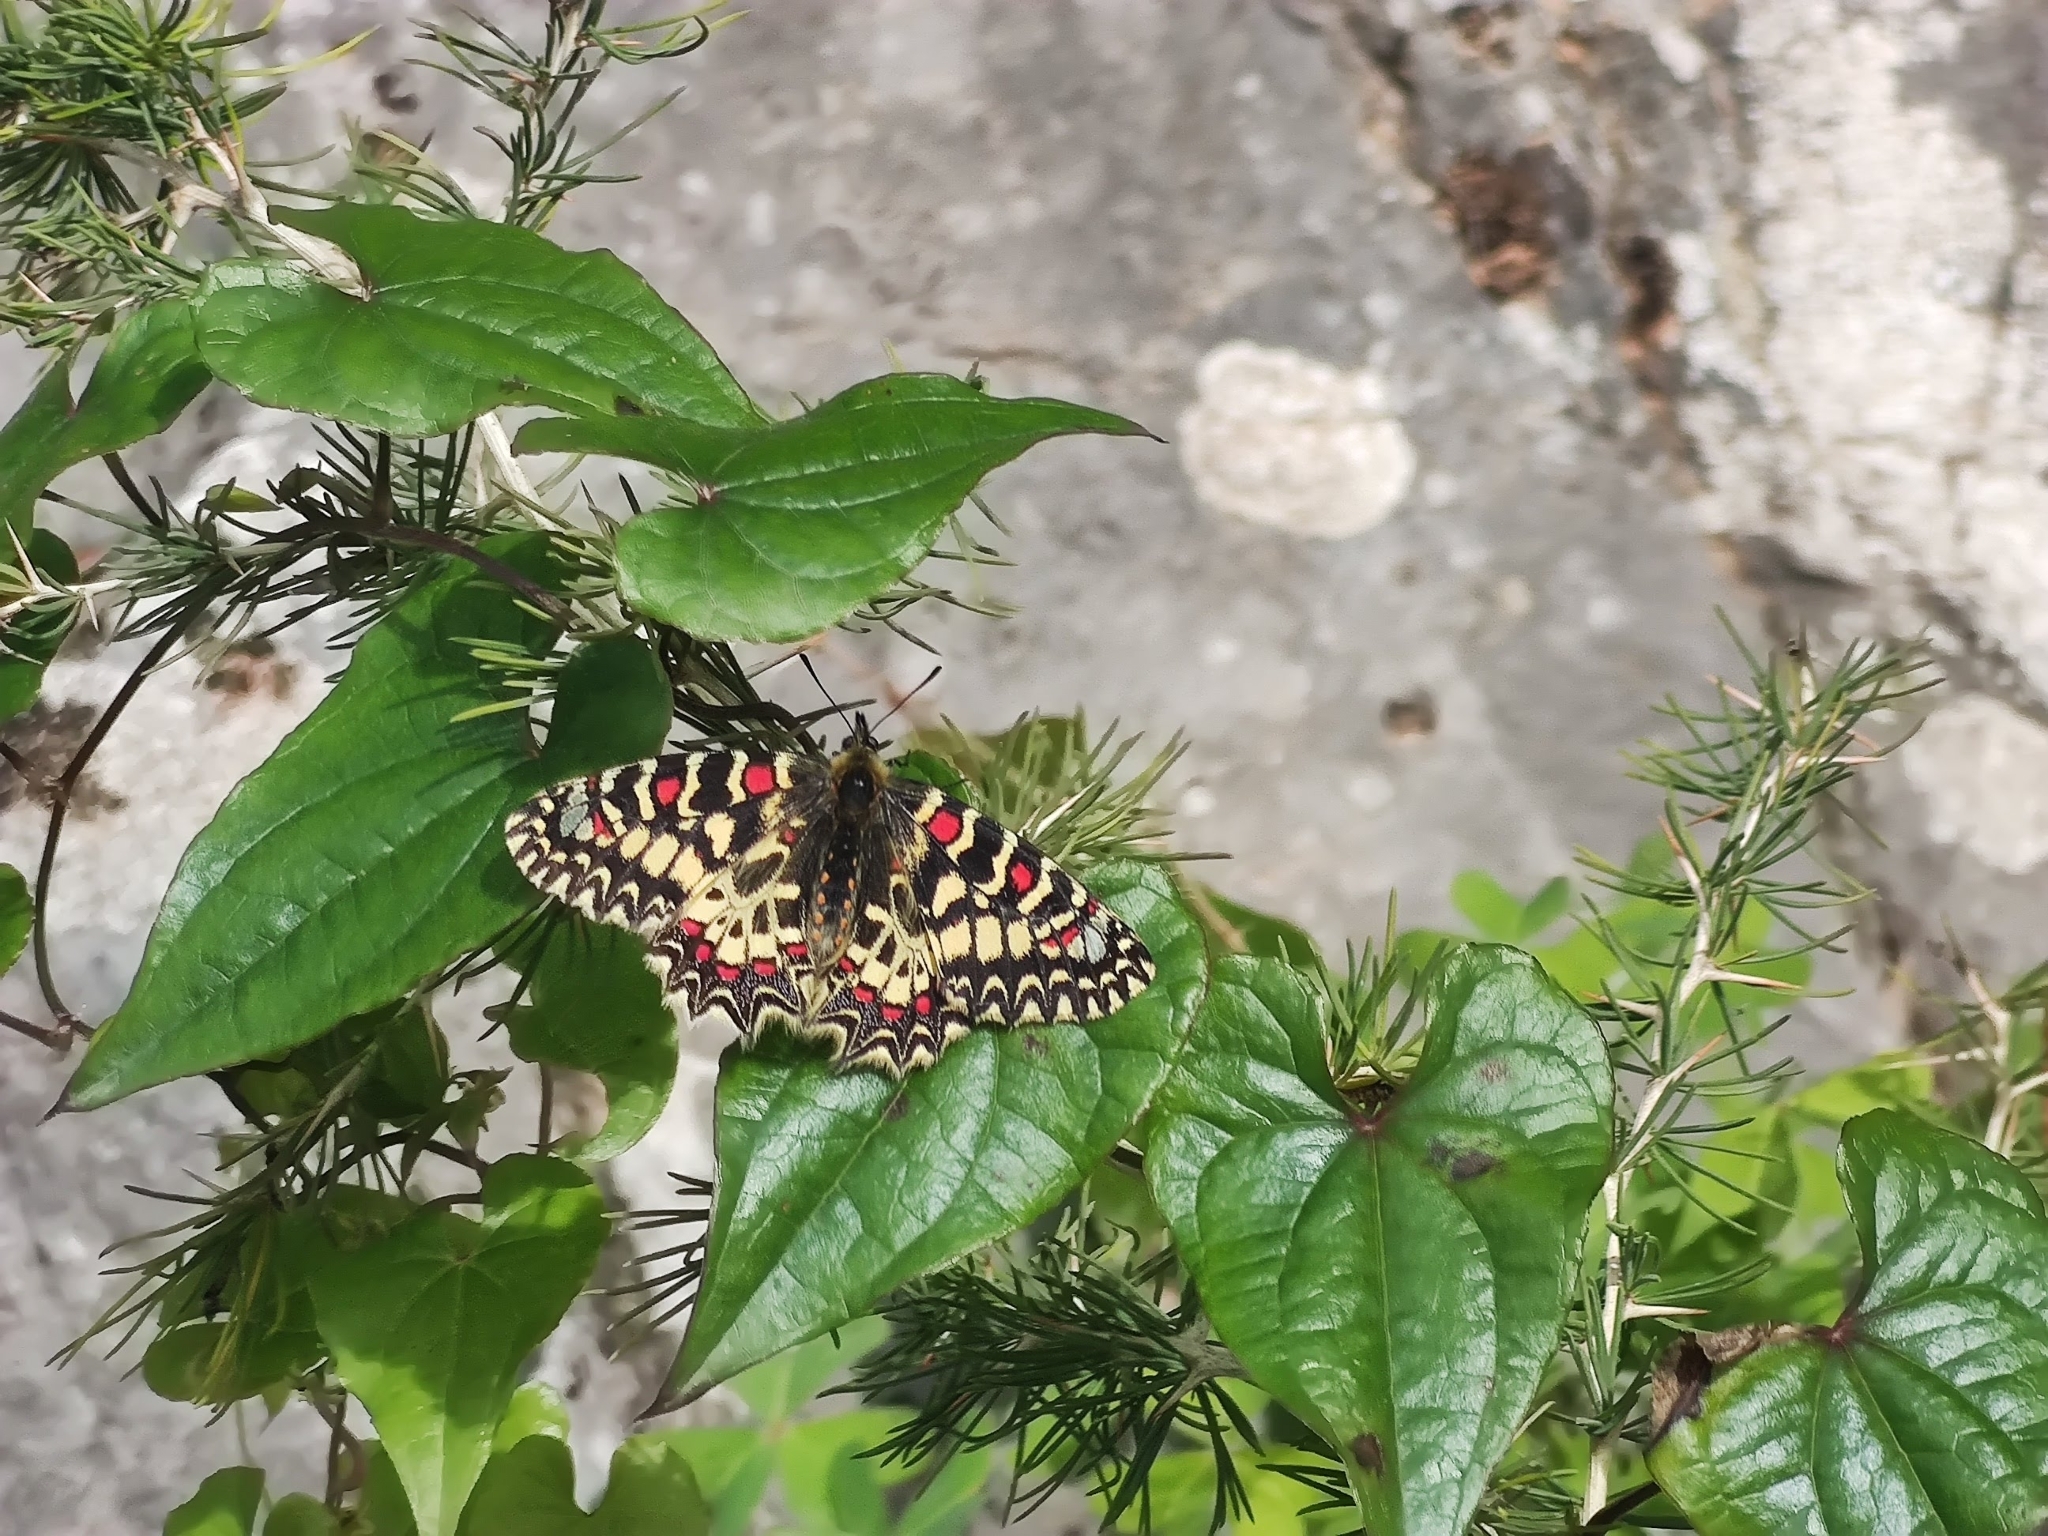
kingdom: Animalia
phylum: Arthropoda
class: Insecta
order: Lepidoptera
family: Papilionidae
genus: Zerynthia
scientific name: Zerynthia rumina
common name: Spanish festoon
